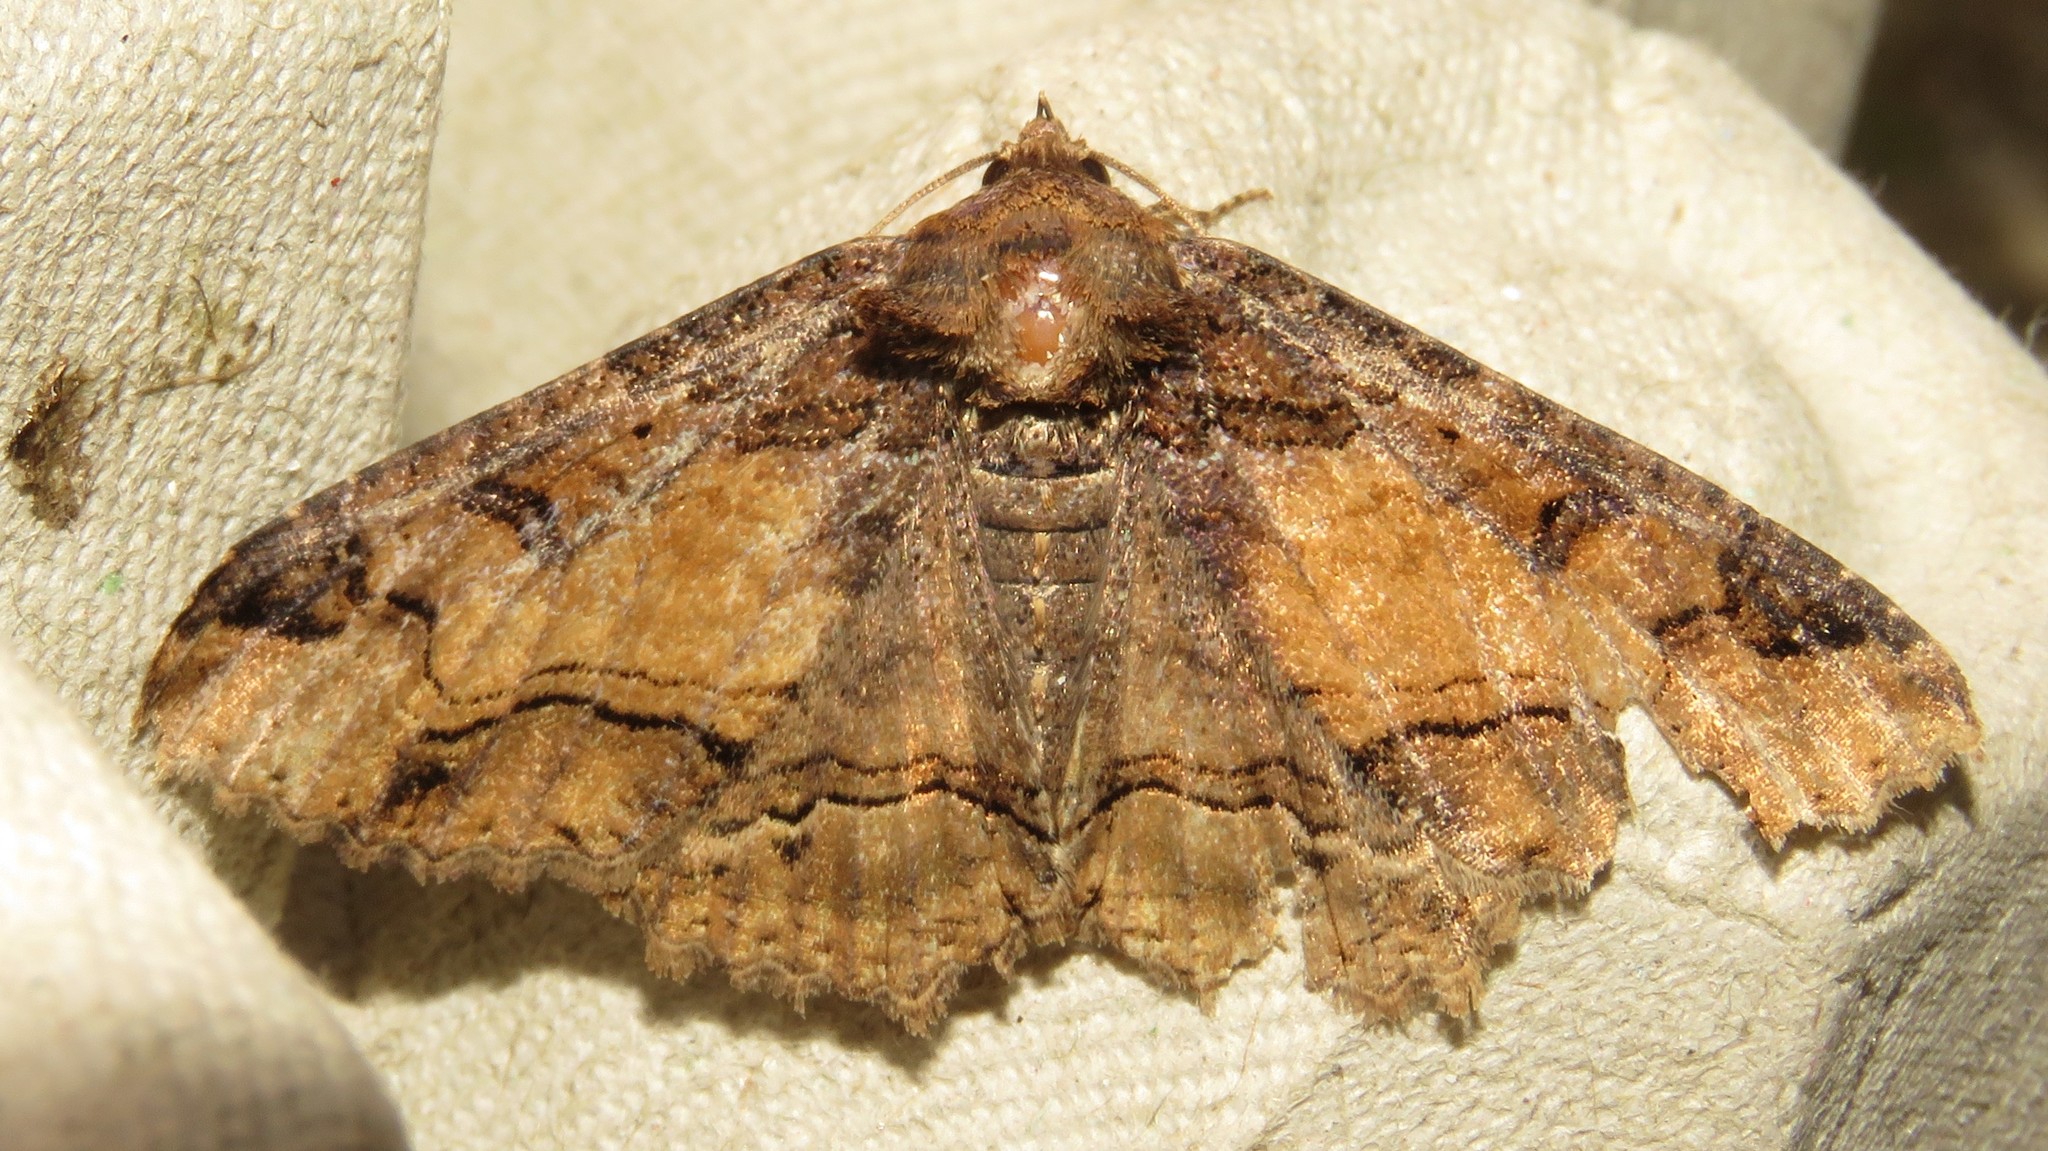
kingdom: Animalia
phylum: Arthropoda
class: Insecta
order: Lepidoptera
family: Erebidae
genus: Zale
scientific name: Zale minerea
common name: Colorful zale moth
